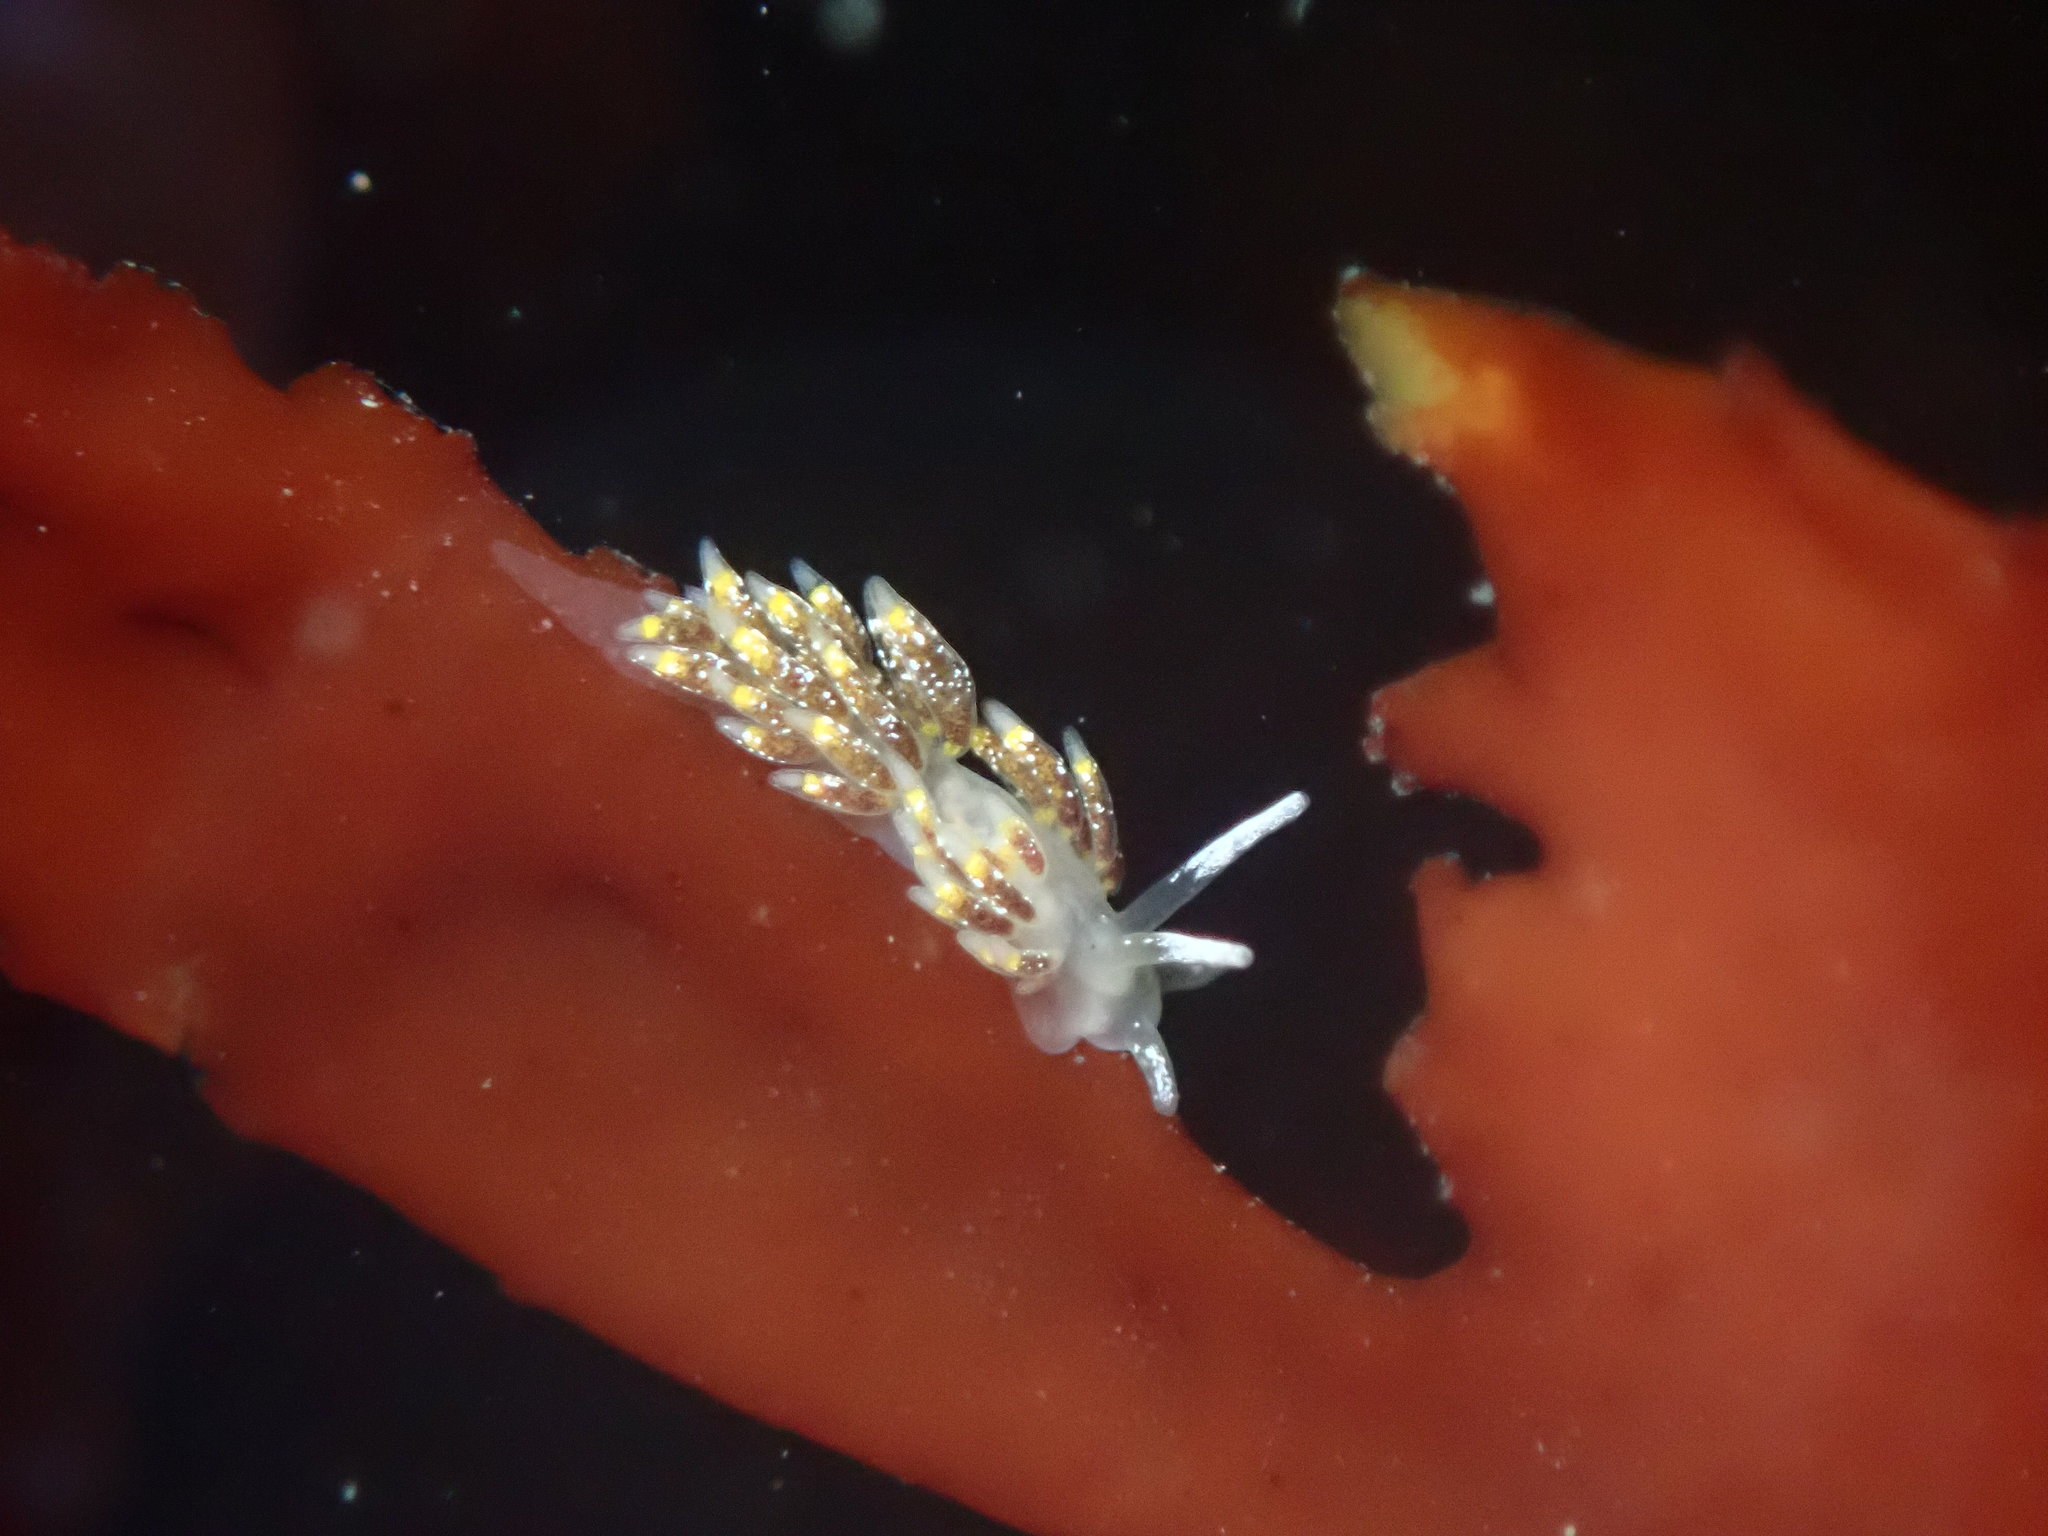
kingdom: Animalia
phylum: Mollusca
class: Gastropoda
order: Nudibranchia
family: Trinchesiidae
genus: Zelentia
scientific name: Zelentia fulgens
